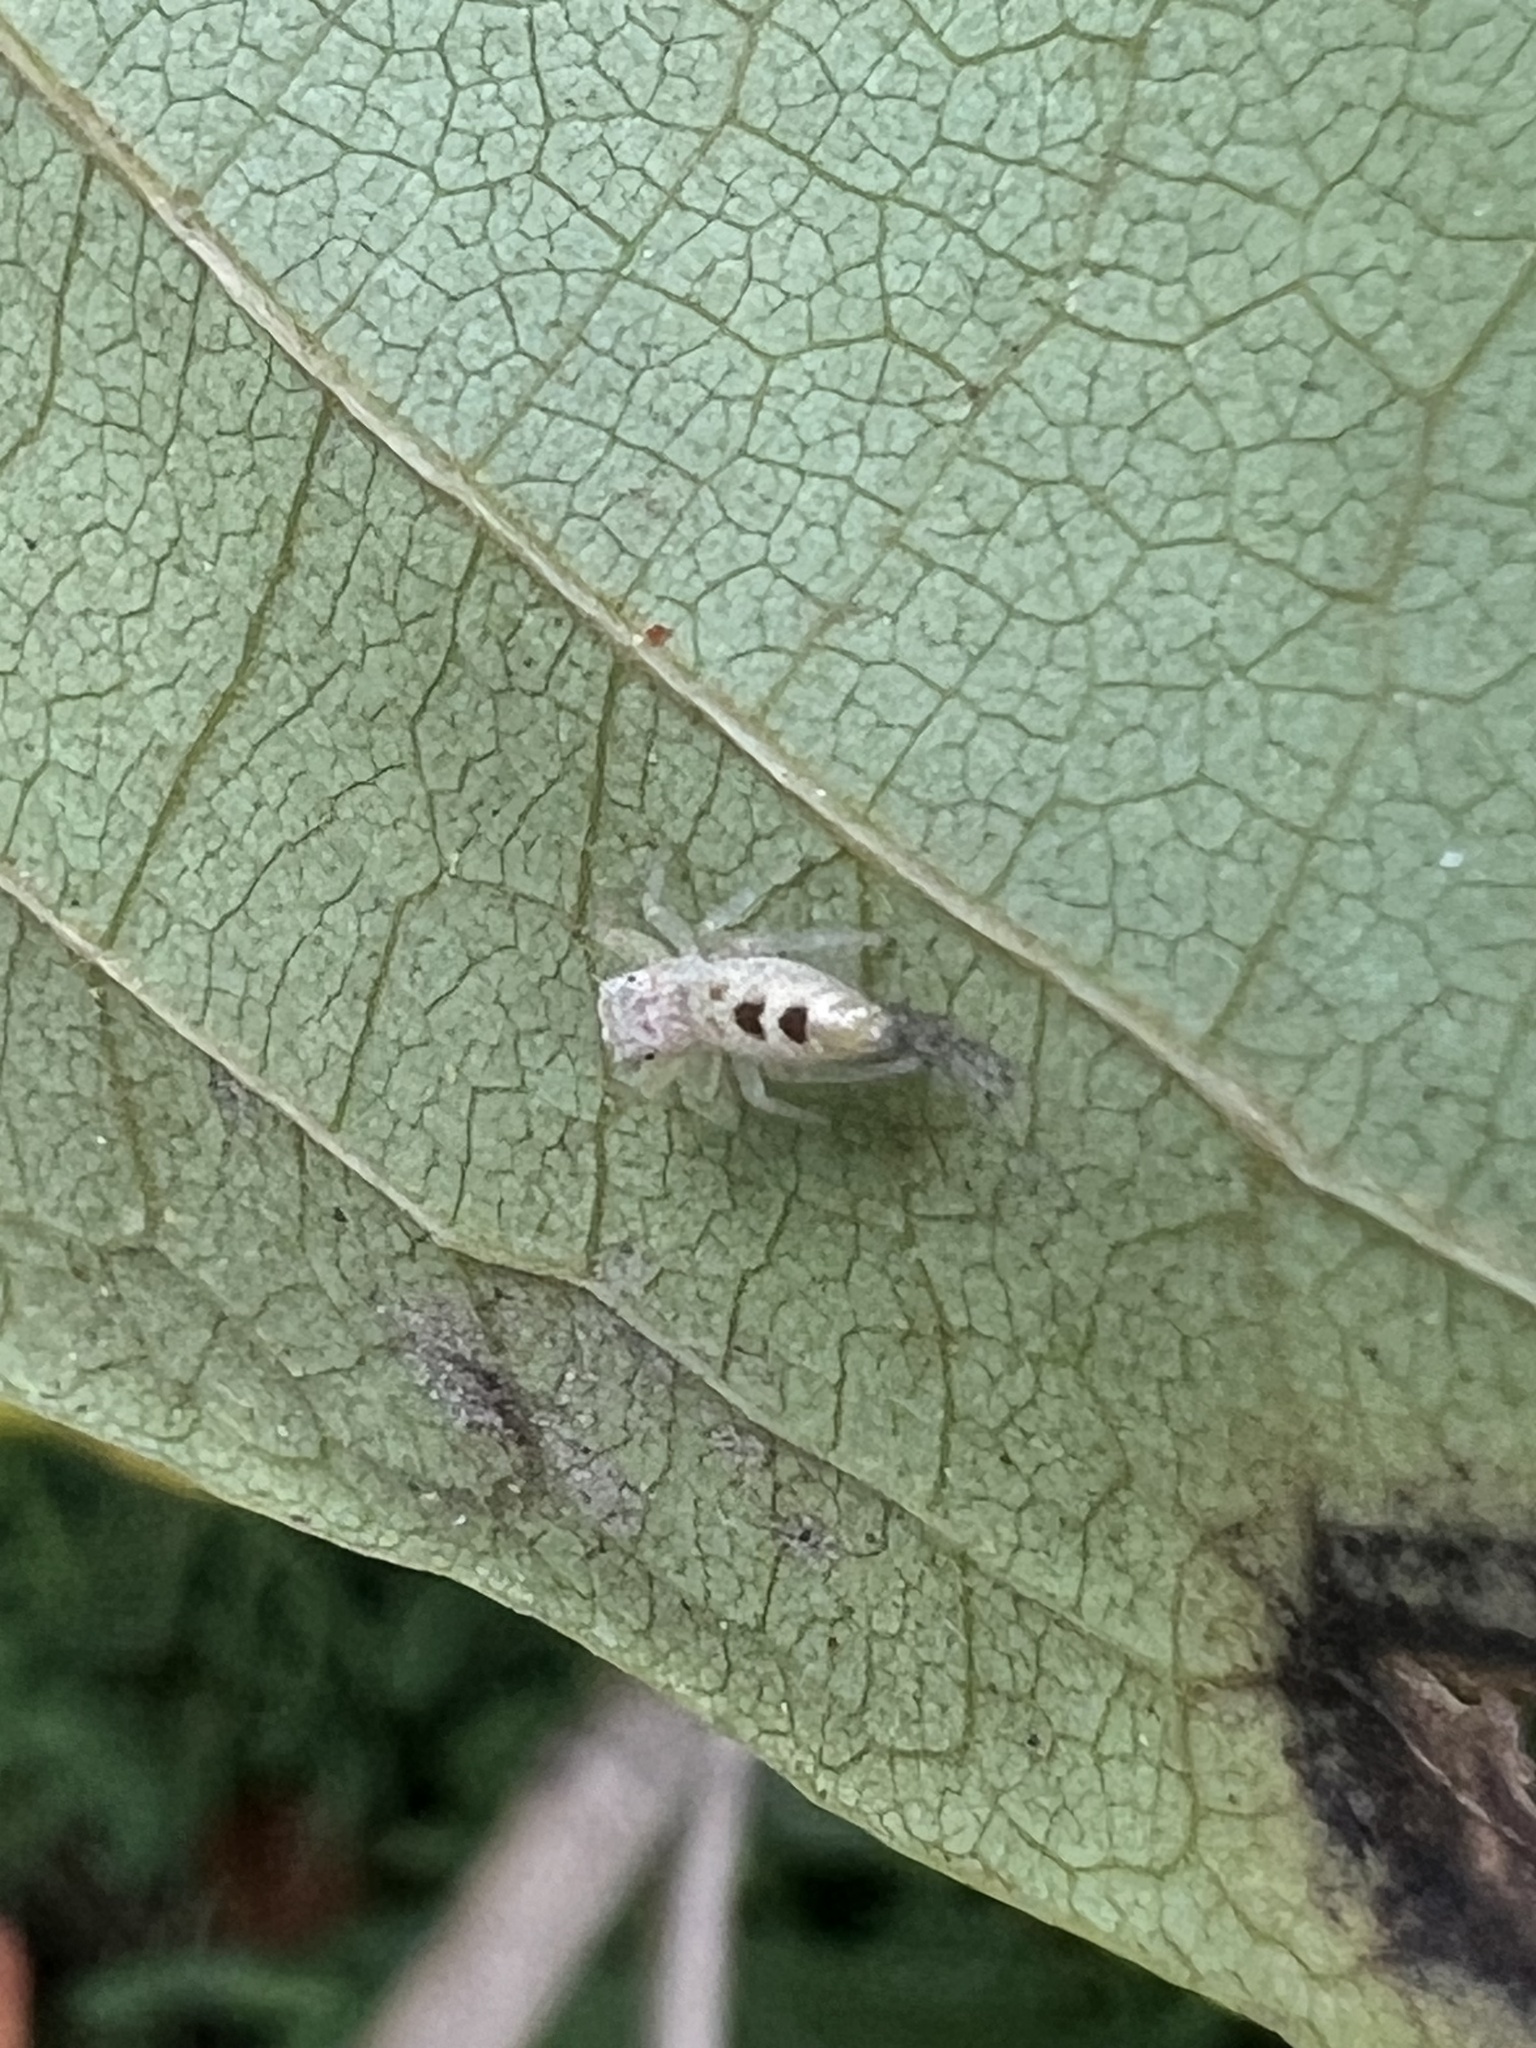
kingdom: Animalia
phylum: Arthropoda
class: Arachnida
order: Araneae
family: Salticidae
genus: Hentzia
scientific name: Hentzia mitrata
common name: White-jawed jumping spider
